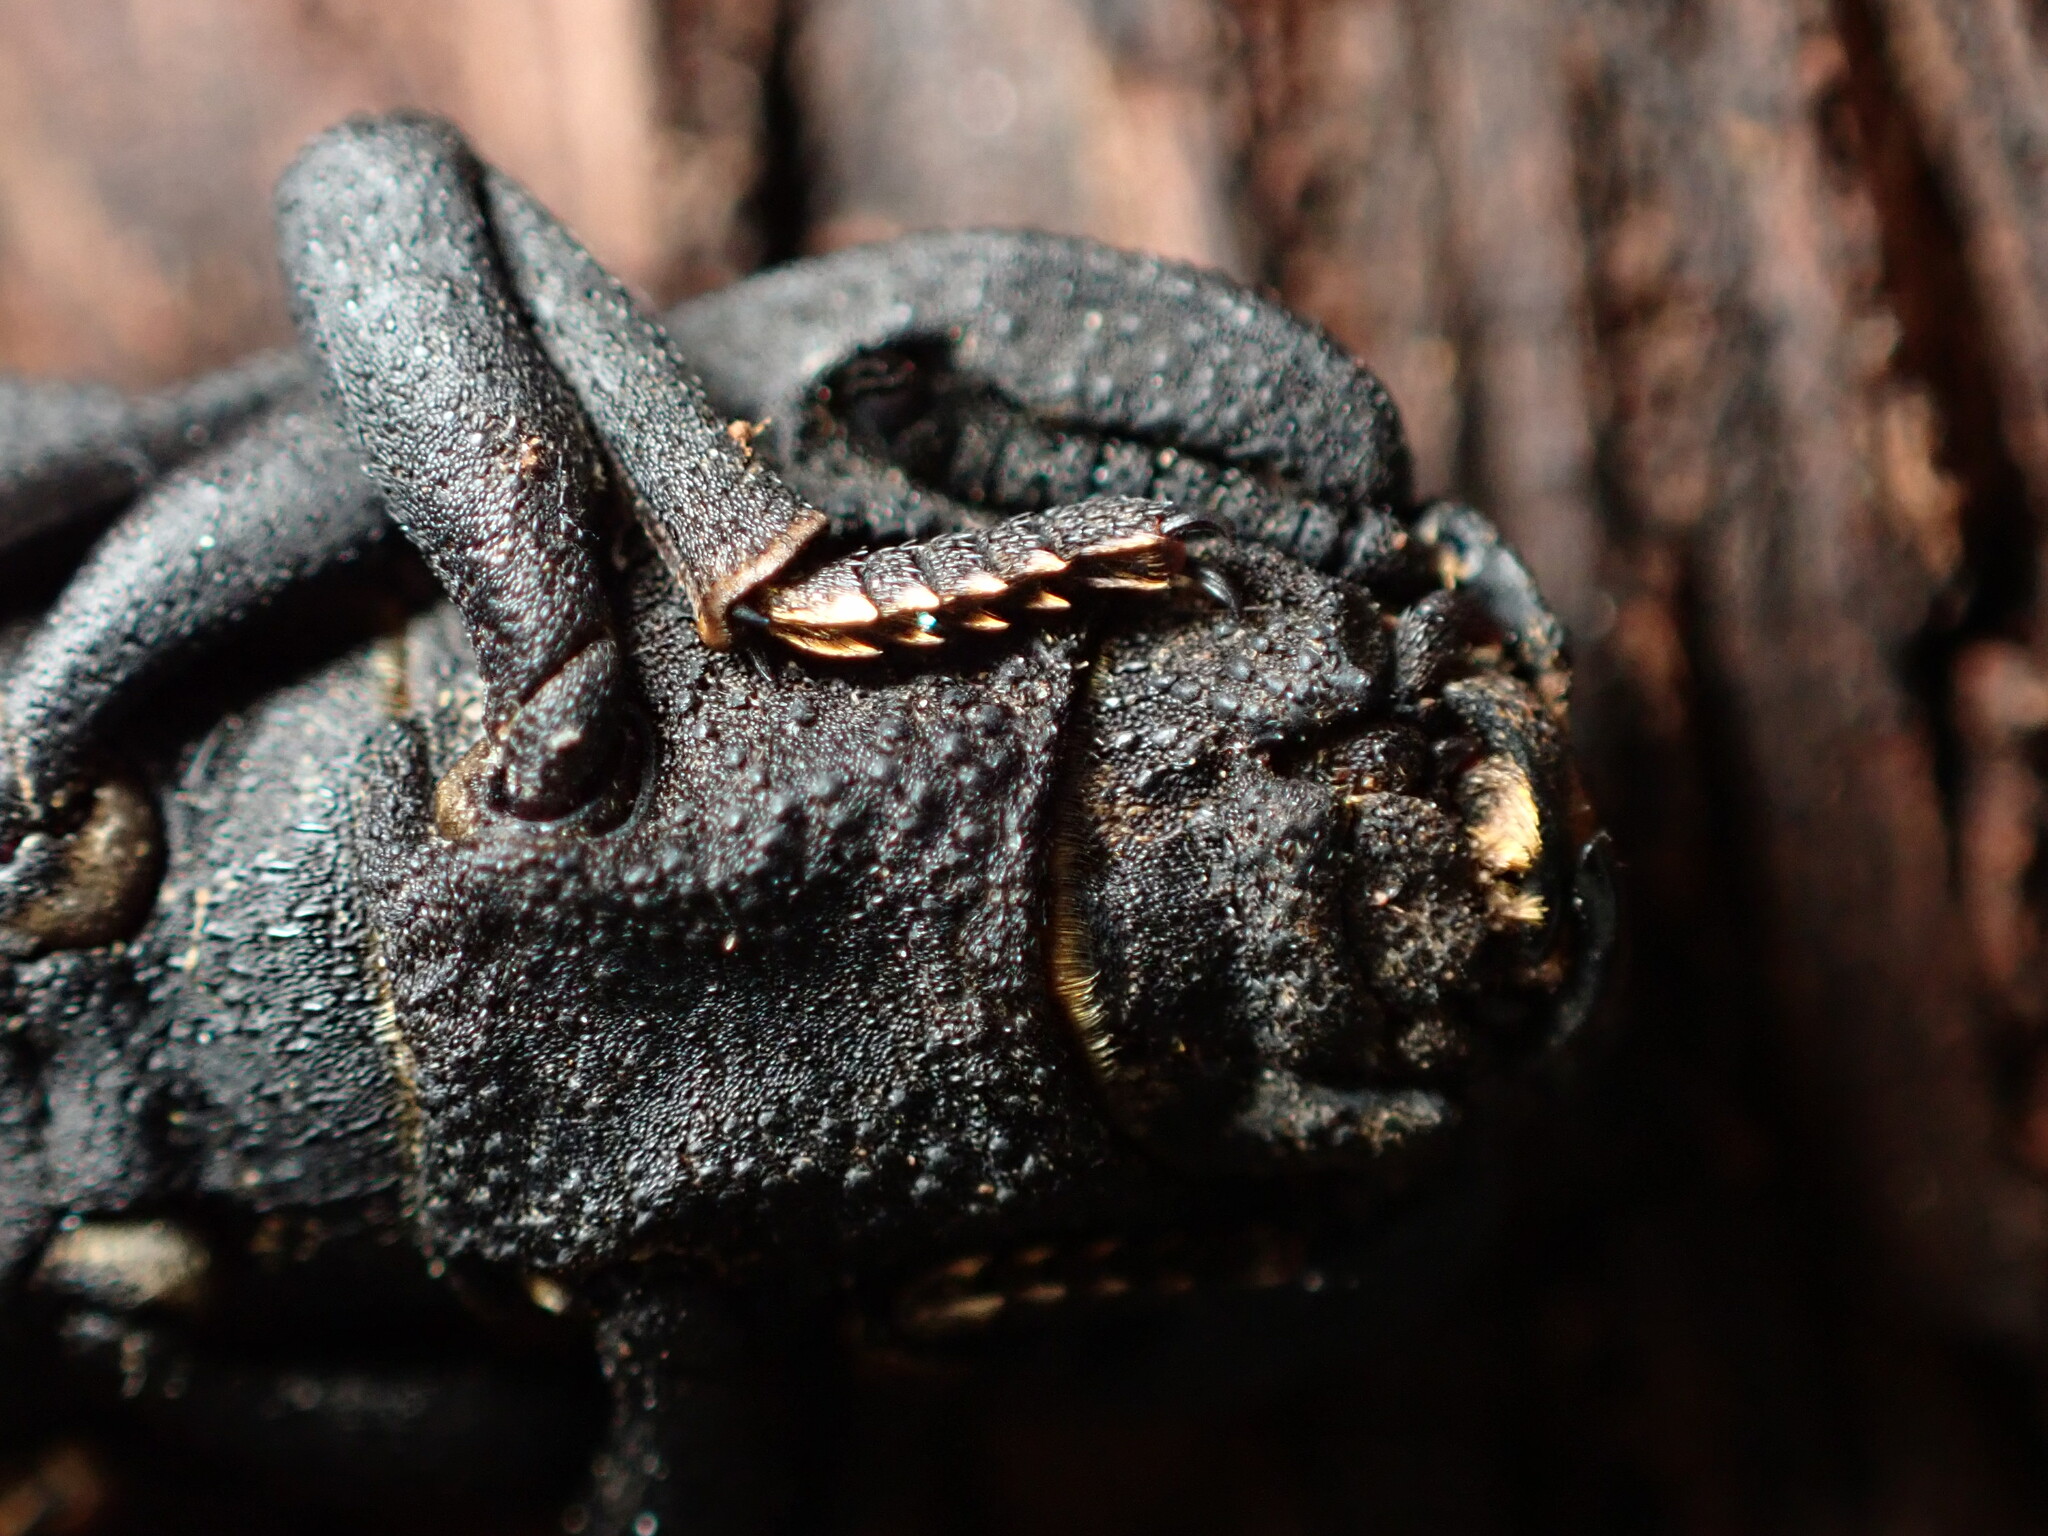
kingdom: Animalia
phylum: Arthropoda
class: Insecta
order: Coleoptera
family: Zopheridae
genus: Phloeodes
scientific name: Phloeodes diabolicus
